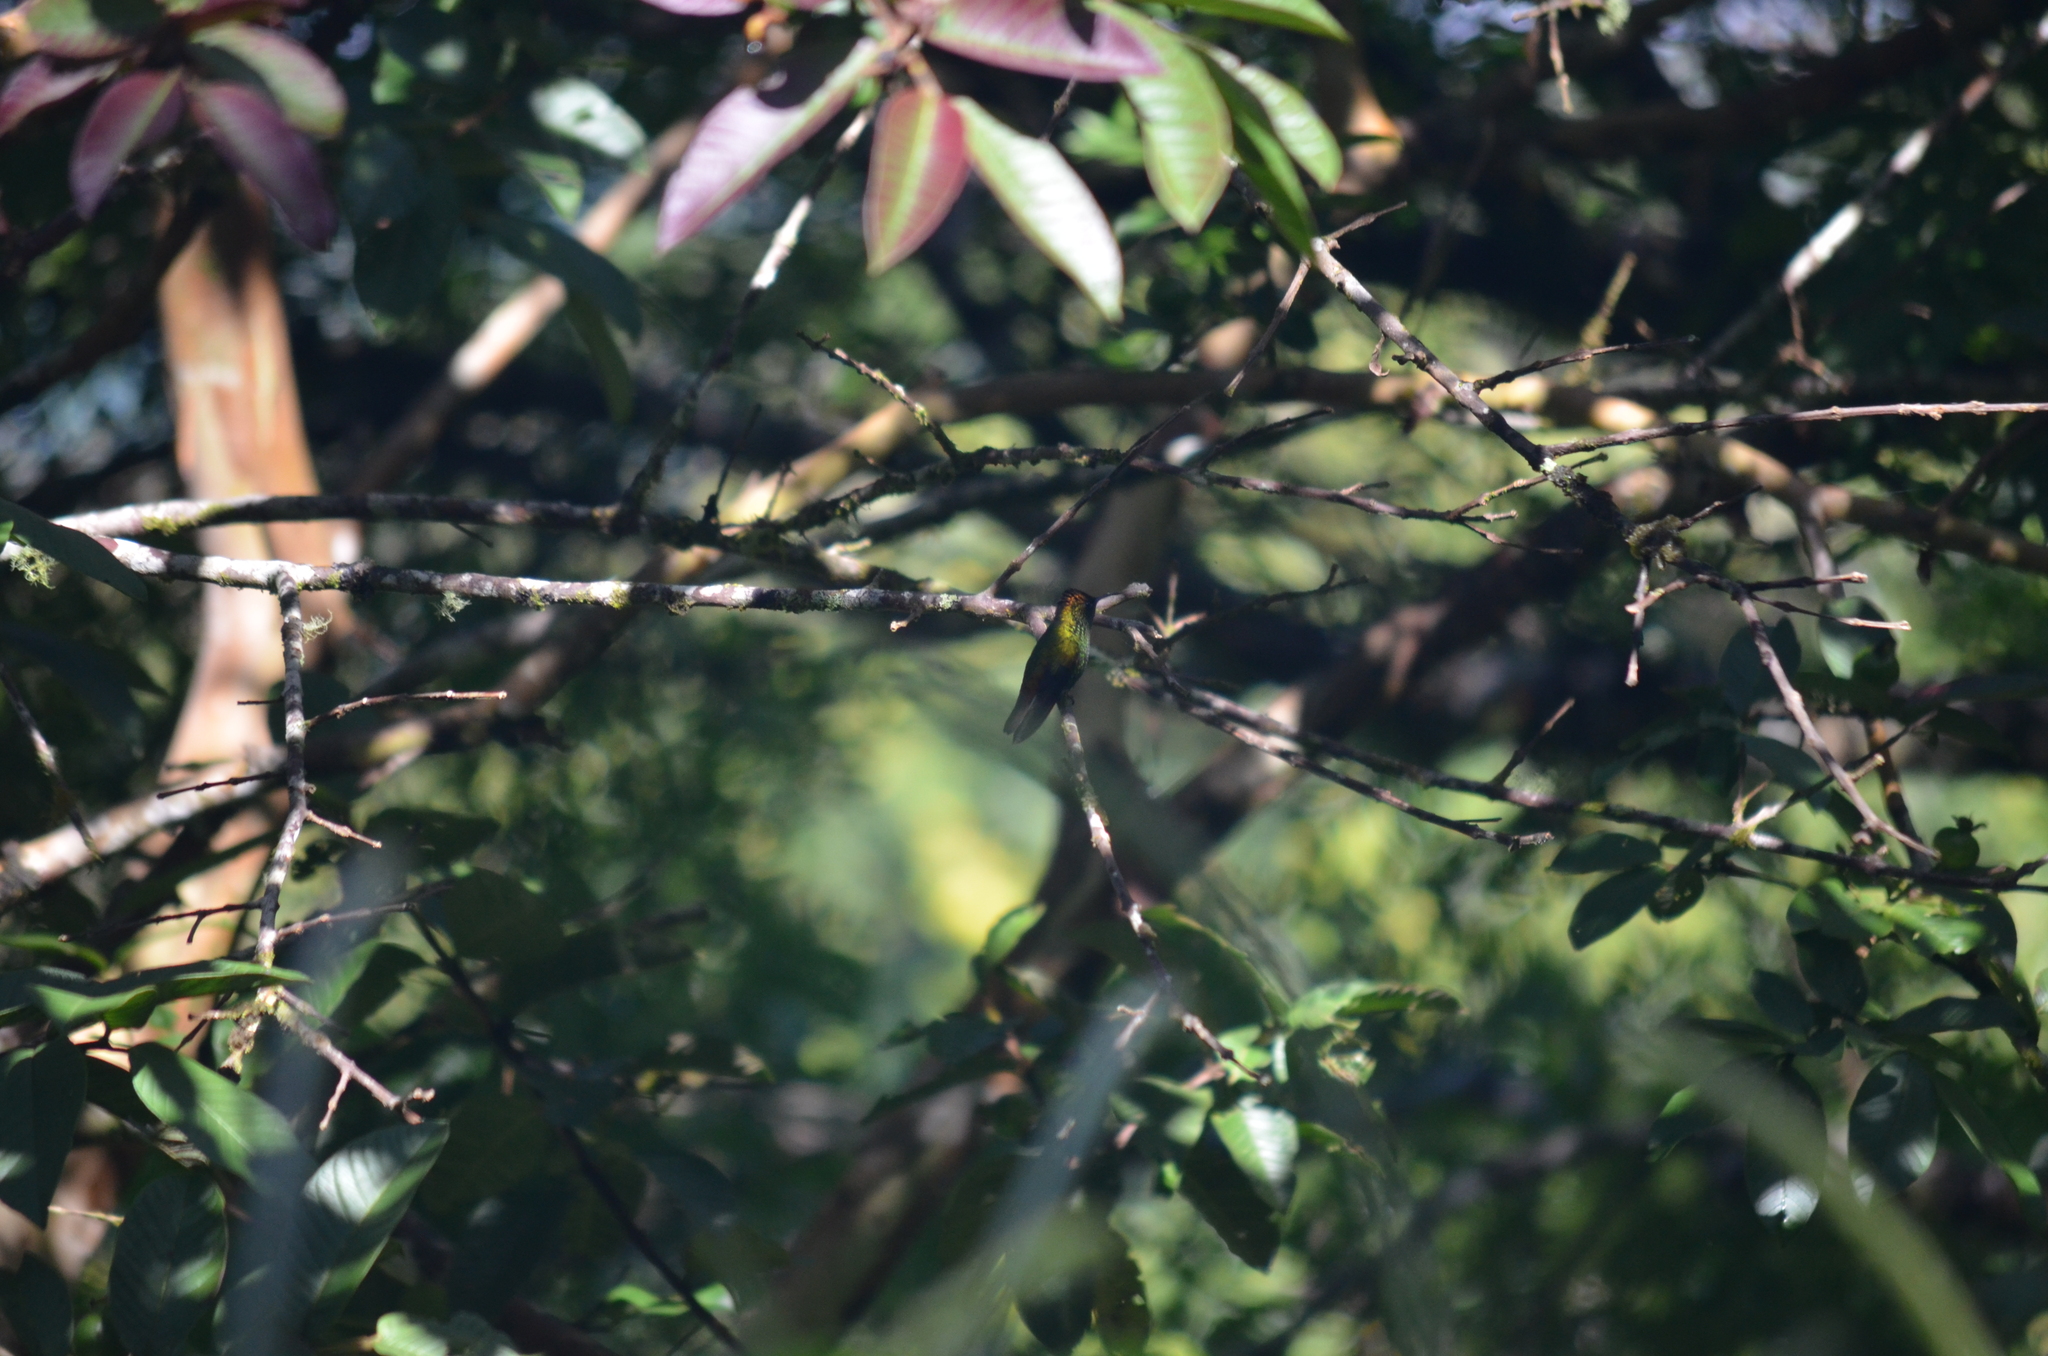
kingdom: Animalia
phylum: Chordata
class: Aves
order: Apodiformes
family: Trochilidae
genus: Microchera
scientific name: Microchera cupreiceps
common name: Coppery-headed emerald
